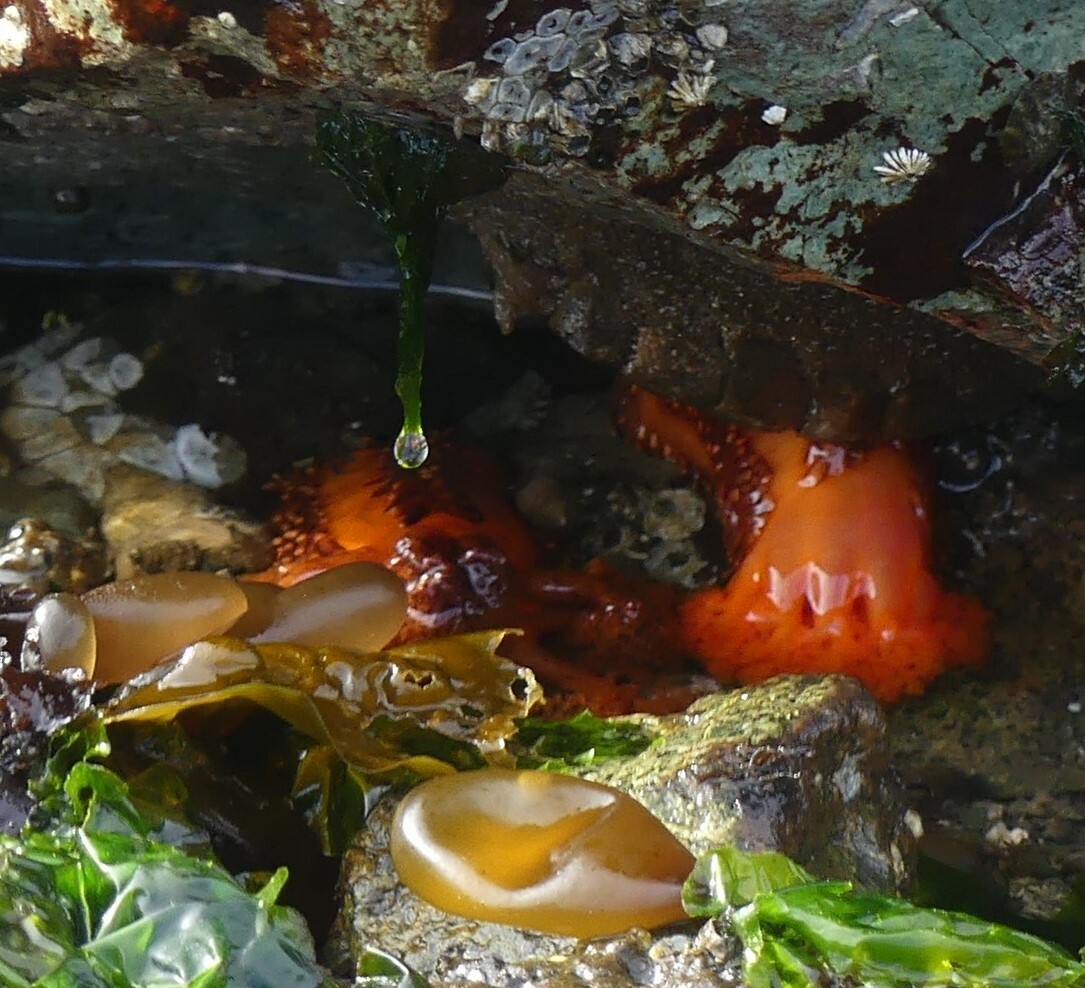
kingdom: Animalia
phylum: Echinodermata
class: Holothuroidea
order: Dendrochirotida
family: Cucumariidae
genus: Cucumaria
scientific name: Cucumaria miniata
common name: Orange sea cucumber
